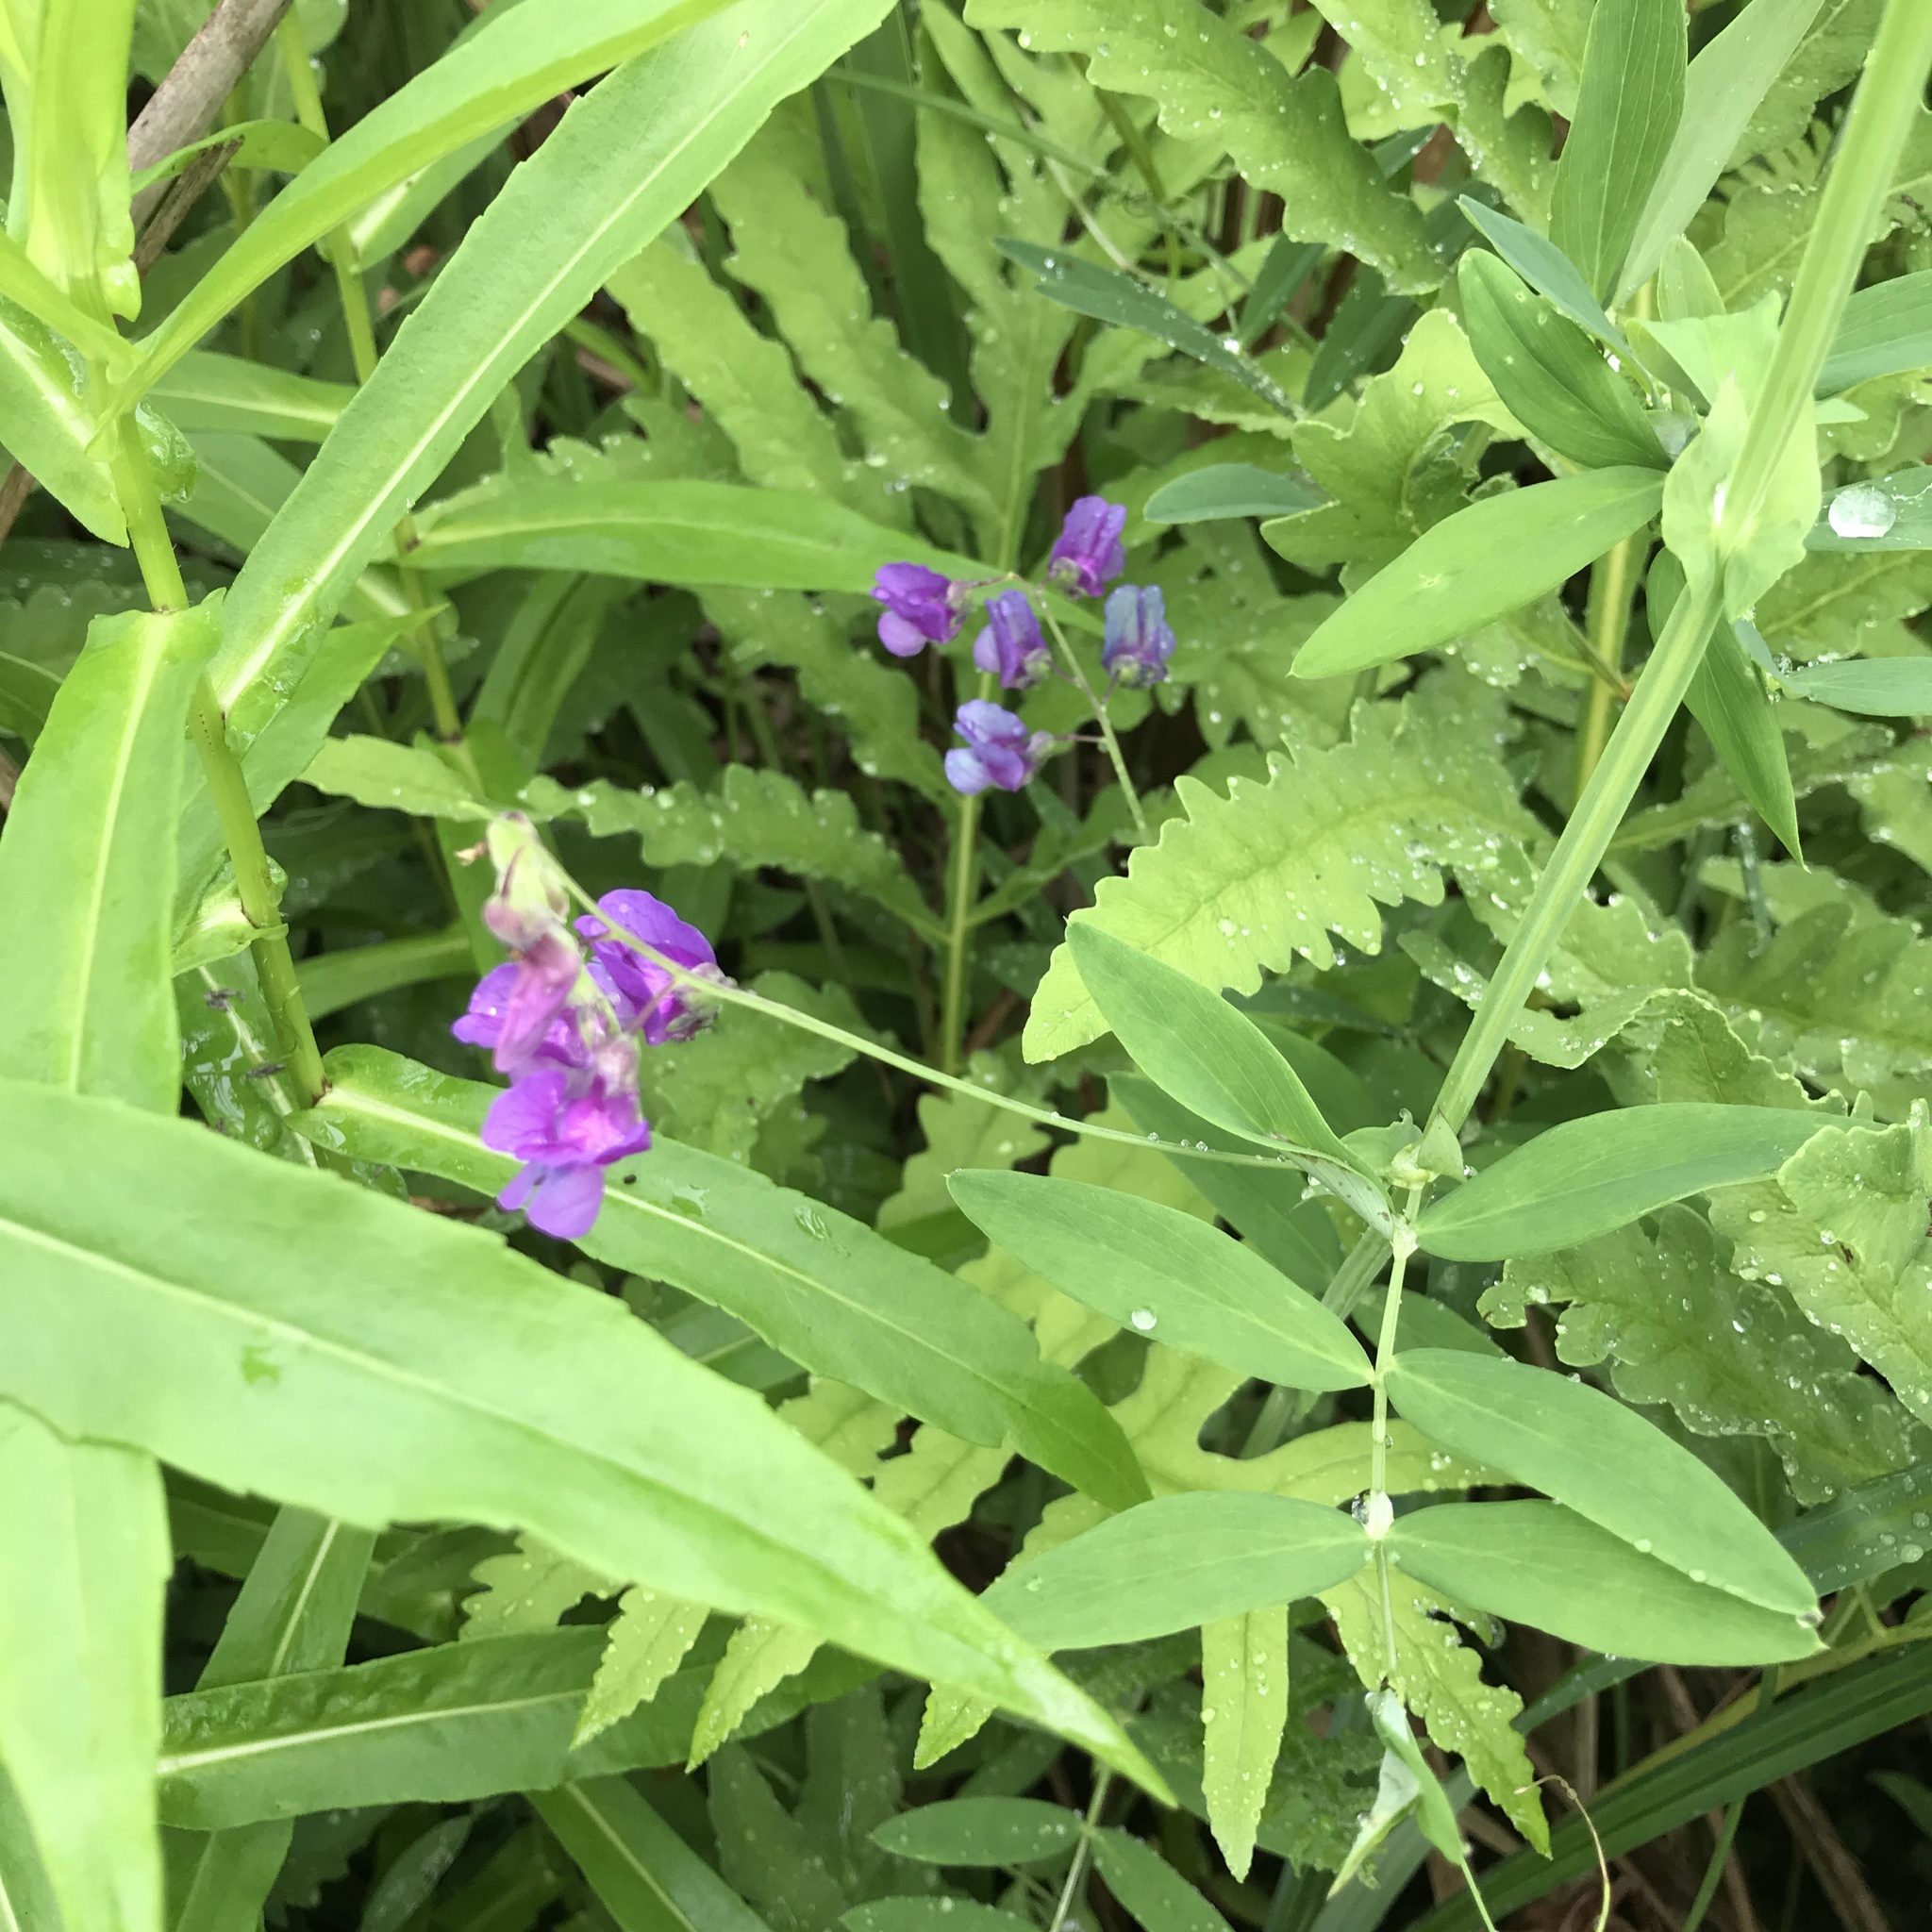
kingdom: Plantae
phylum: Tracheophyta
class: Magnoliopsida
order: Fabales
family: Fabaceae
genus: Lathyrus
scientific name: Lathyrus palustris
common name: Marsh pea
